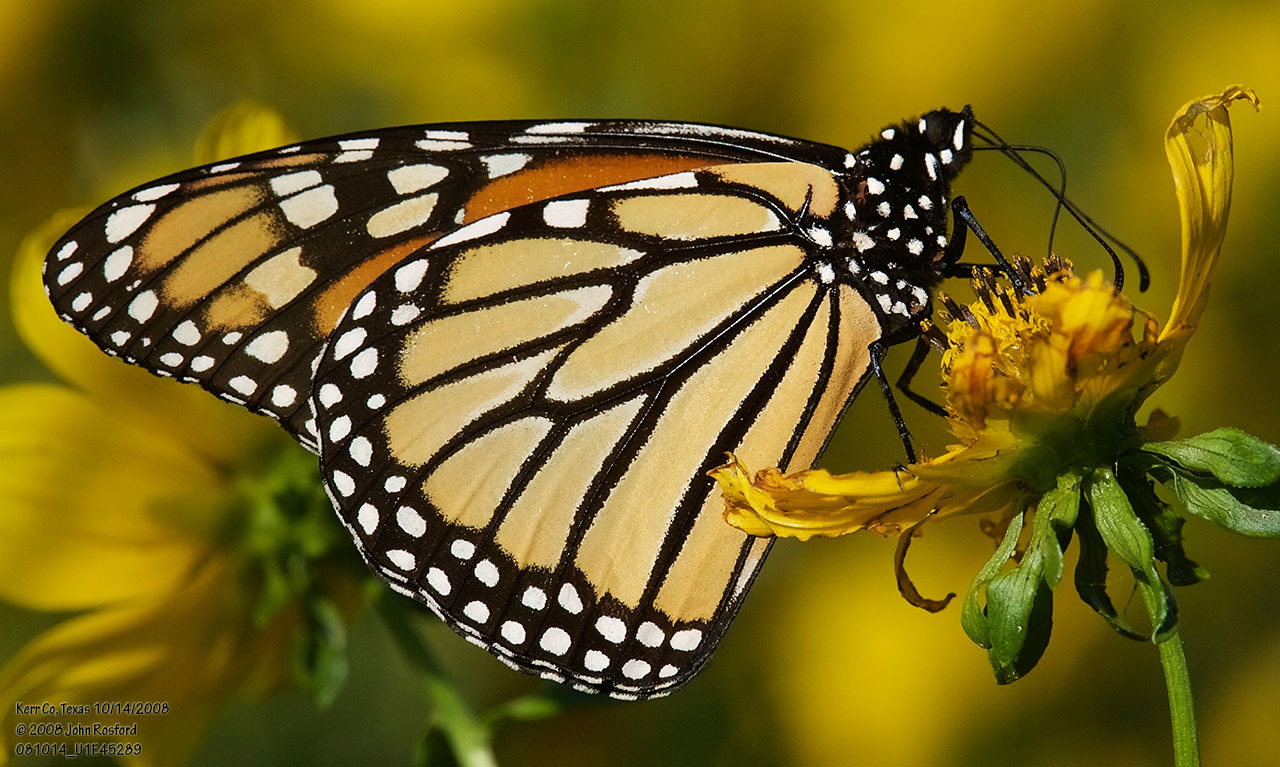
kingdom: Animalia
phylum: Arthropoda
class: Insecta
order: Lepidoptera
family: Nymphalidae
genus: Danaus
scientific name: Danaus plexippus
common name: Monarch
